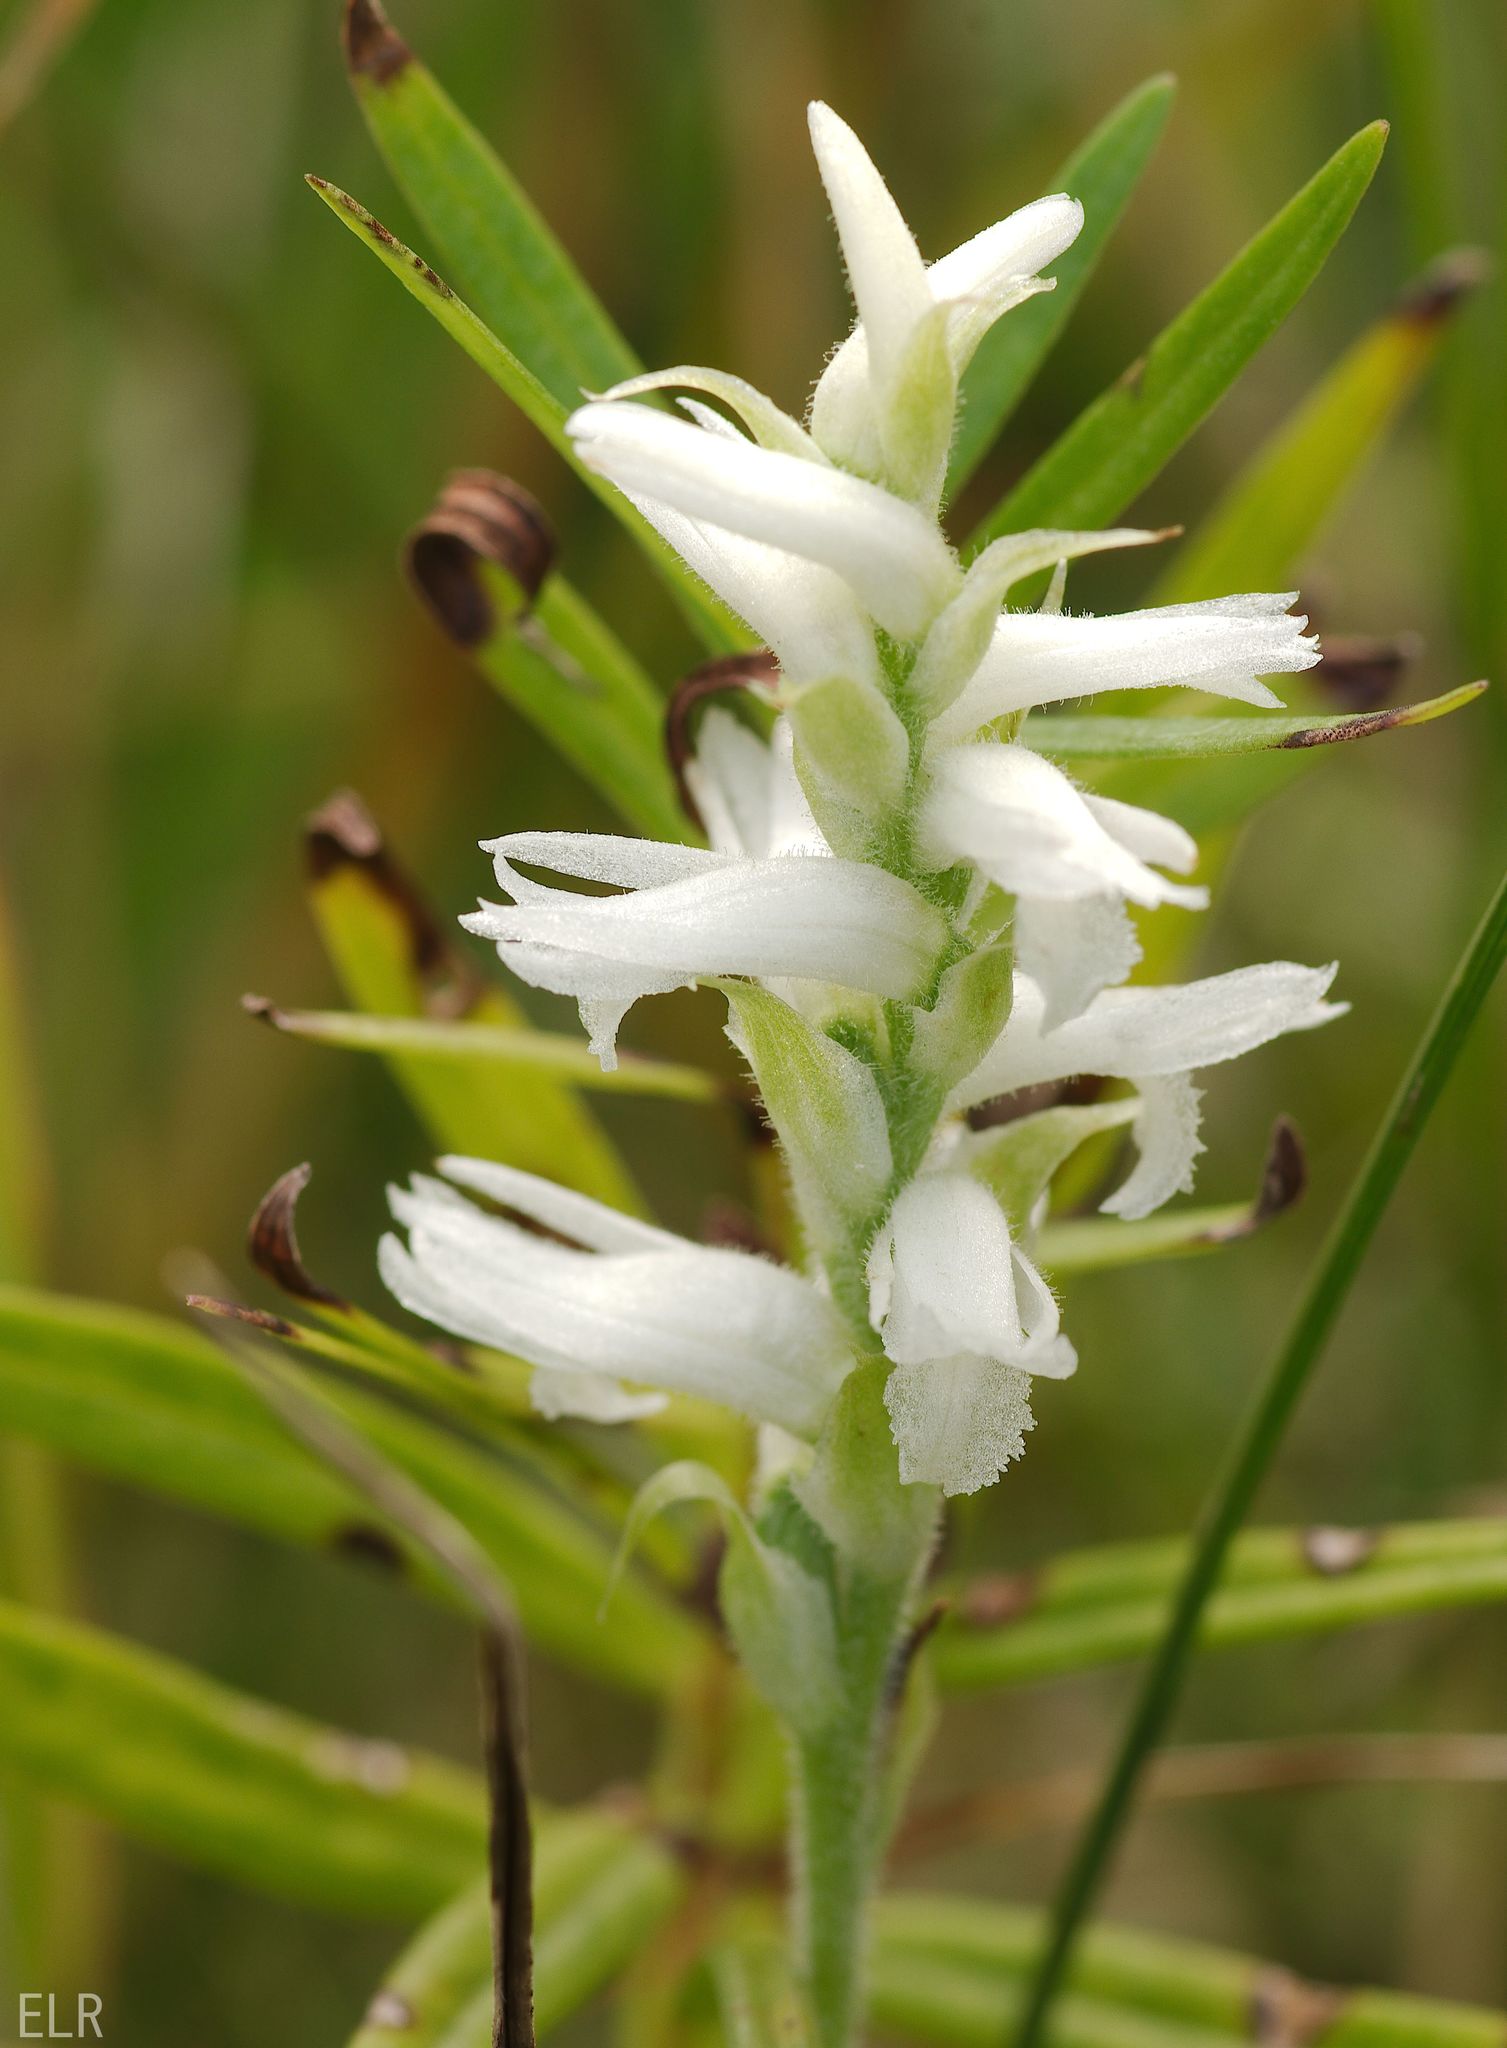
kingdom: Plantae
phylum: Tracheophyta
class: Liliopsida
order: Asparagales
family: Orchidaceae
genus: Spiranthes
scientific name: Spiranthes incurva
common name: Sphinx ladies'-tresses
